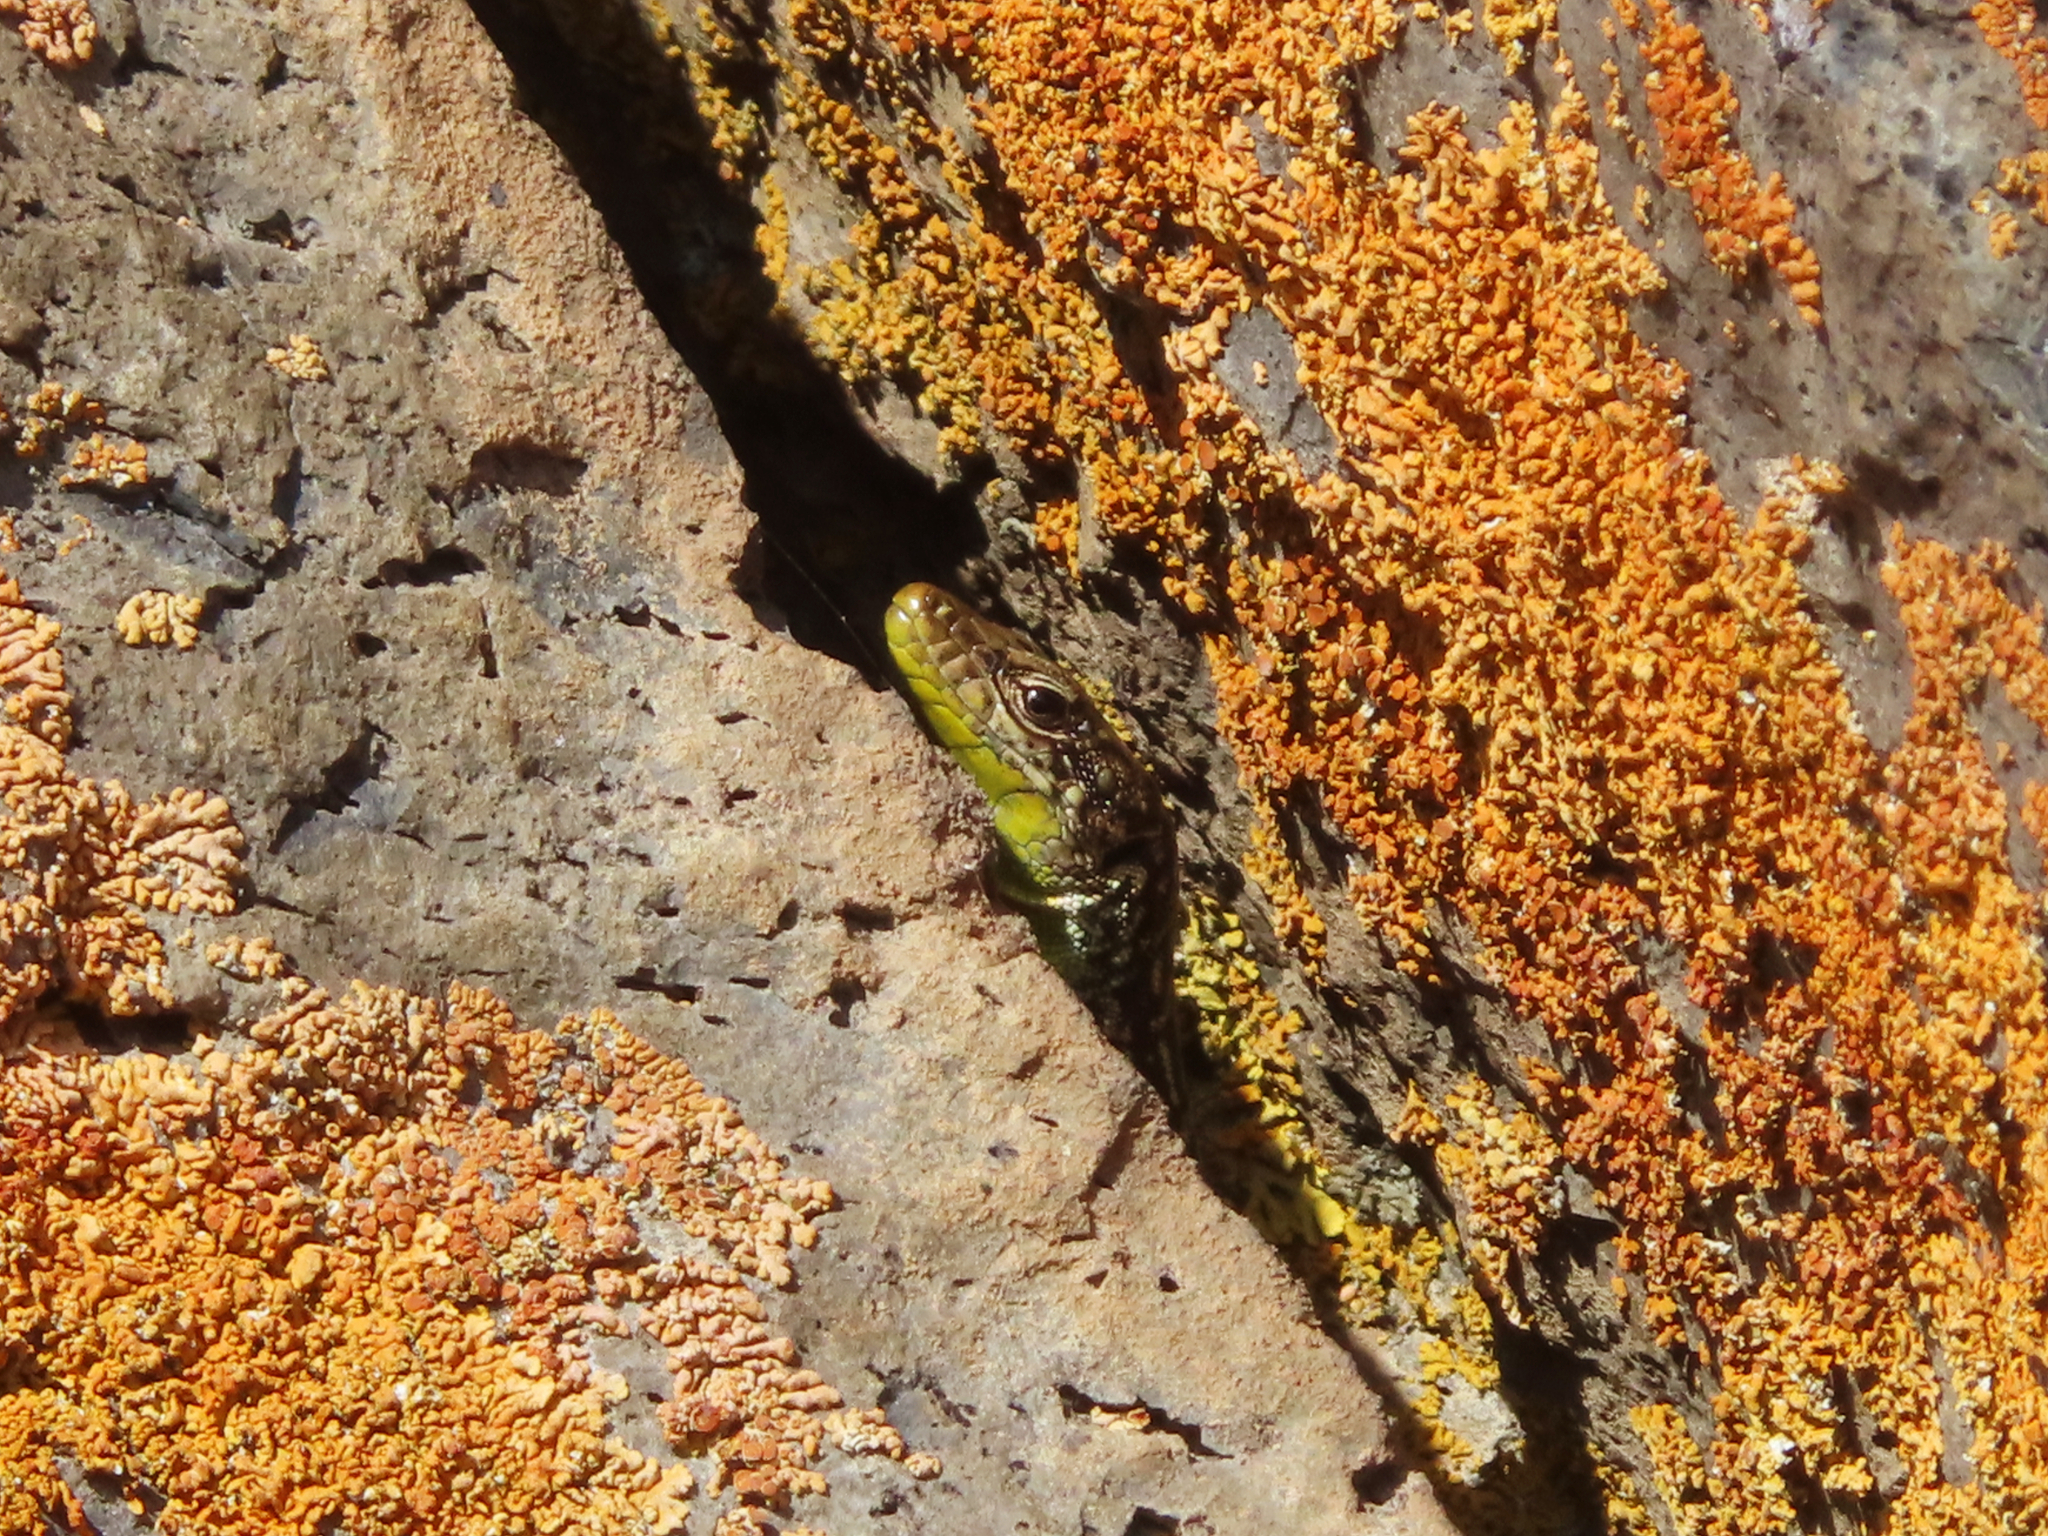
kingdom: Animalia
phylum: Chordata
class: Squamata
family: Lacertidae
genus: Darevskia
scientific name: Darevskia
